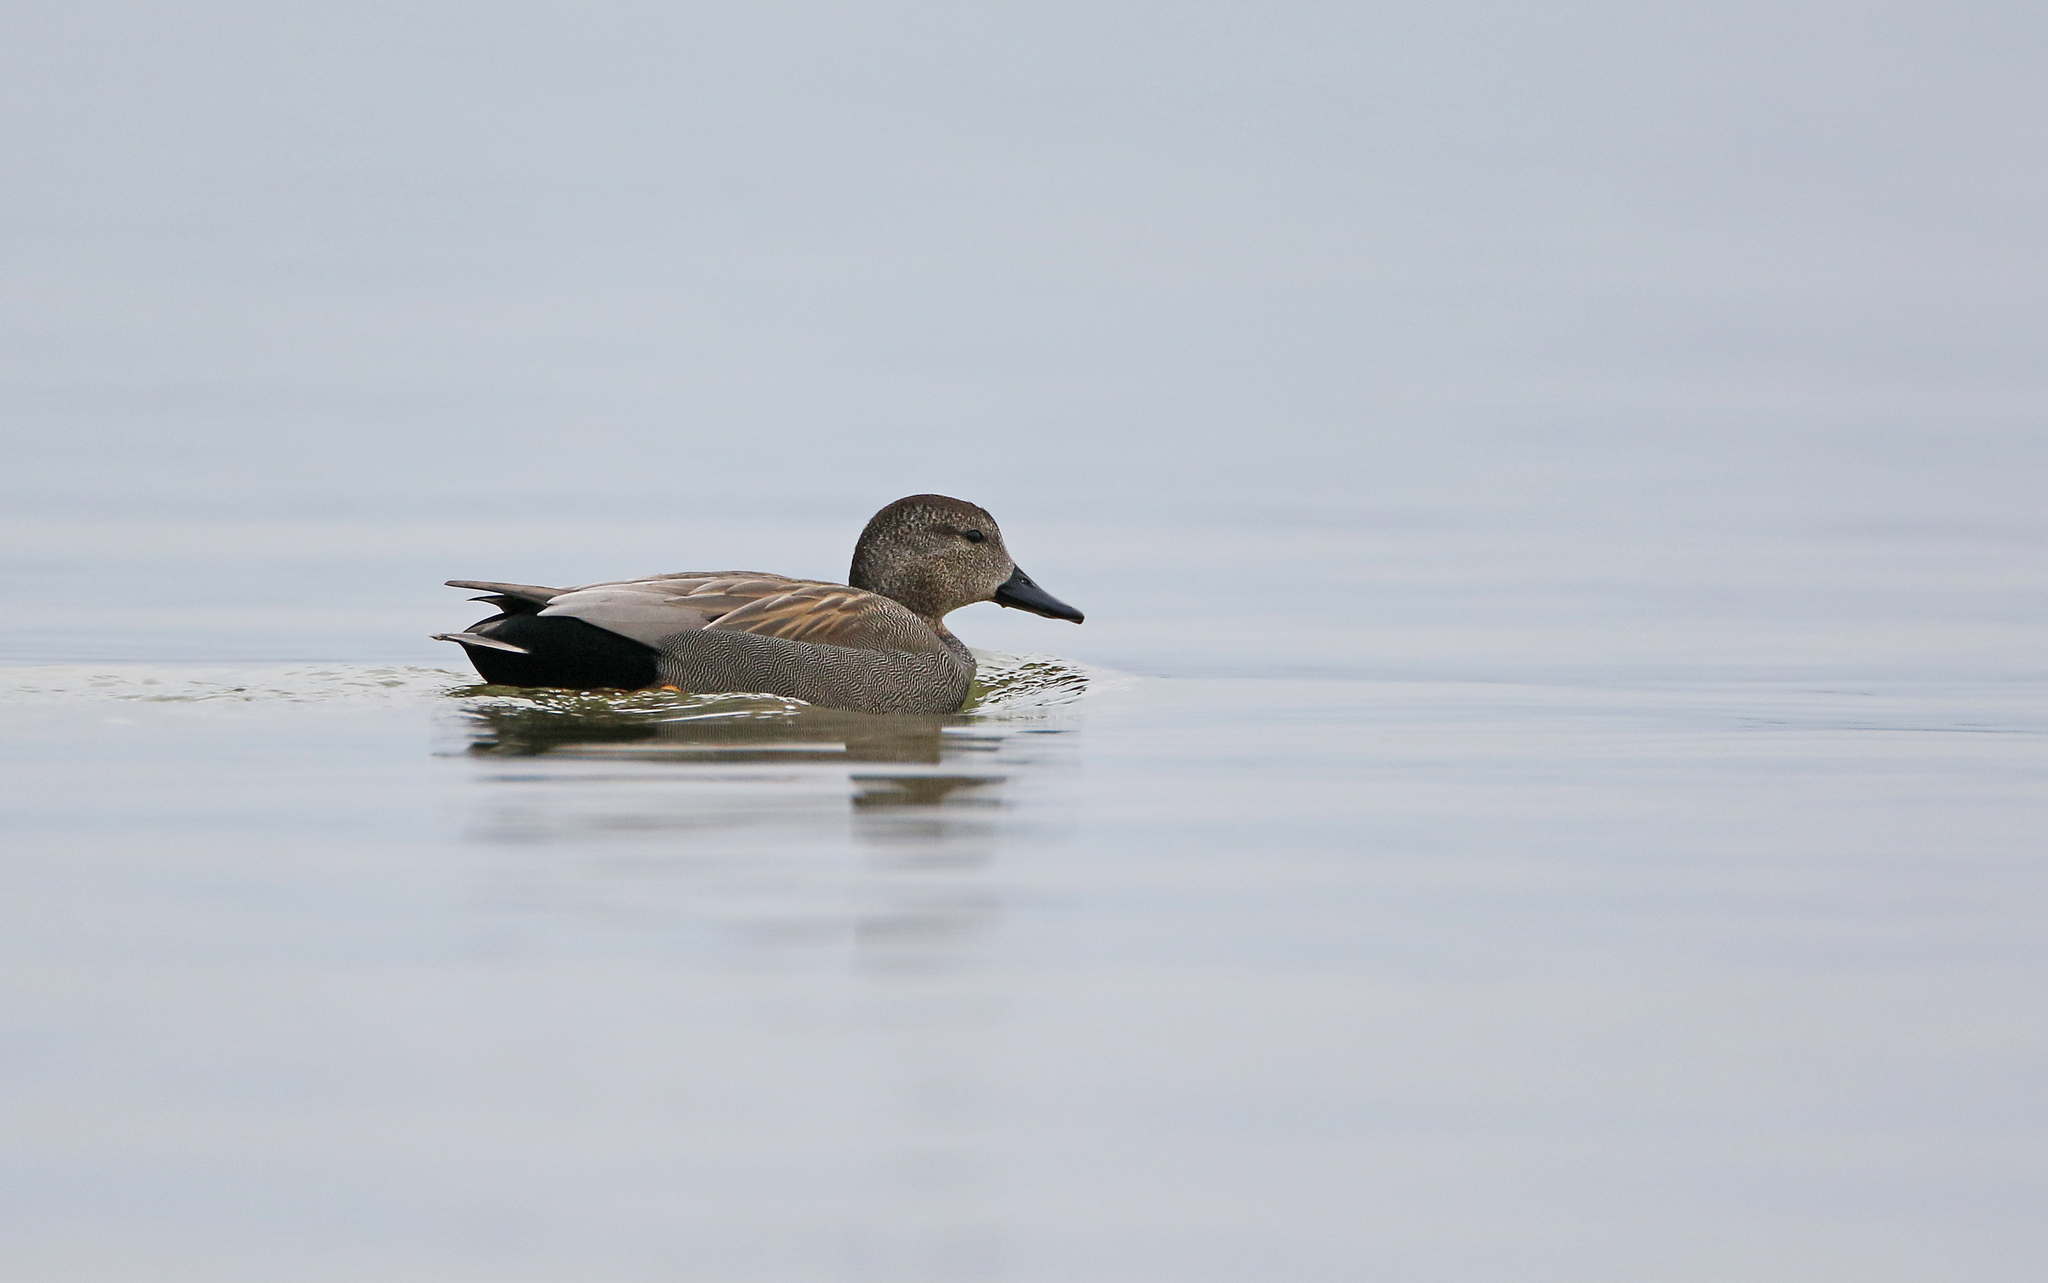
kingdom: Animalia
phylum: Chordata
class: Aves
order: Anseriformes
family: Anatidae
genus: Mareca
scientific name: Mareca strepera
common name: Gadwall
